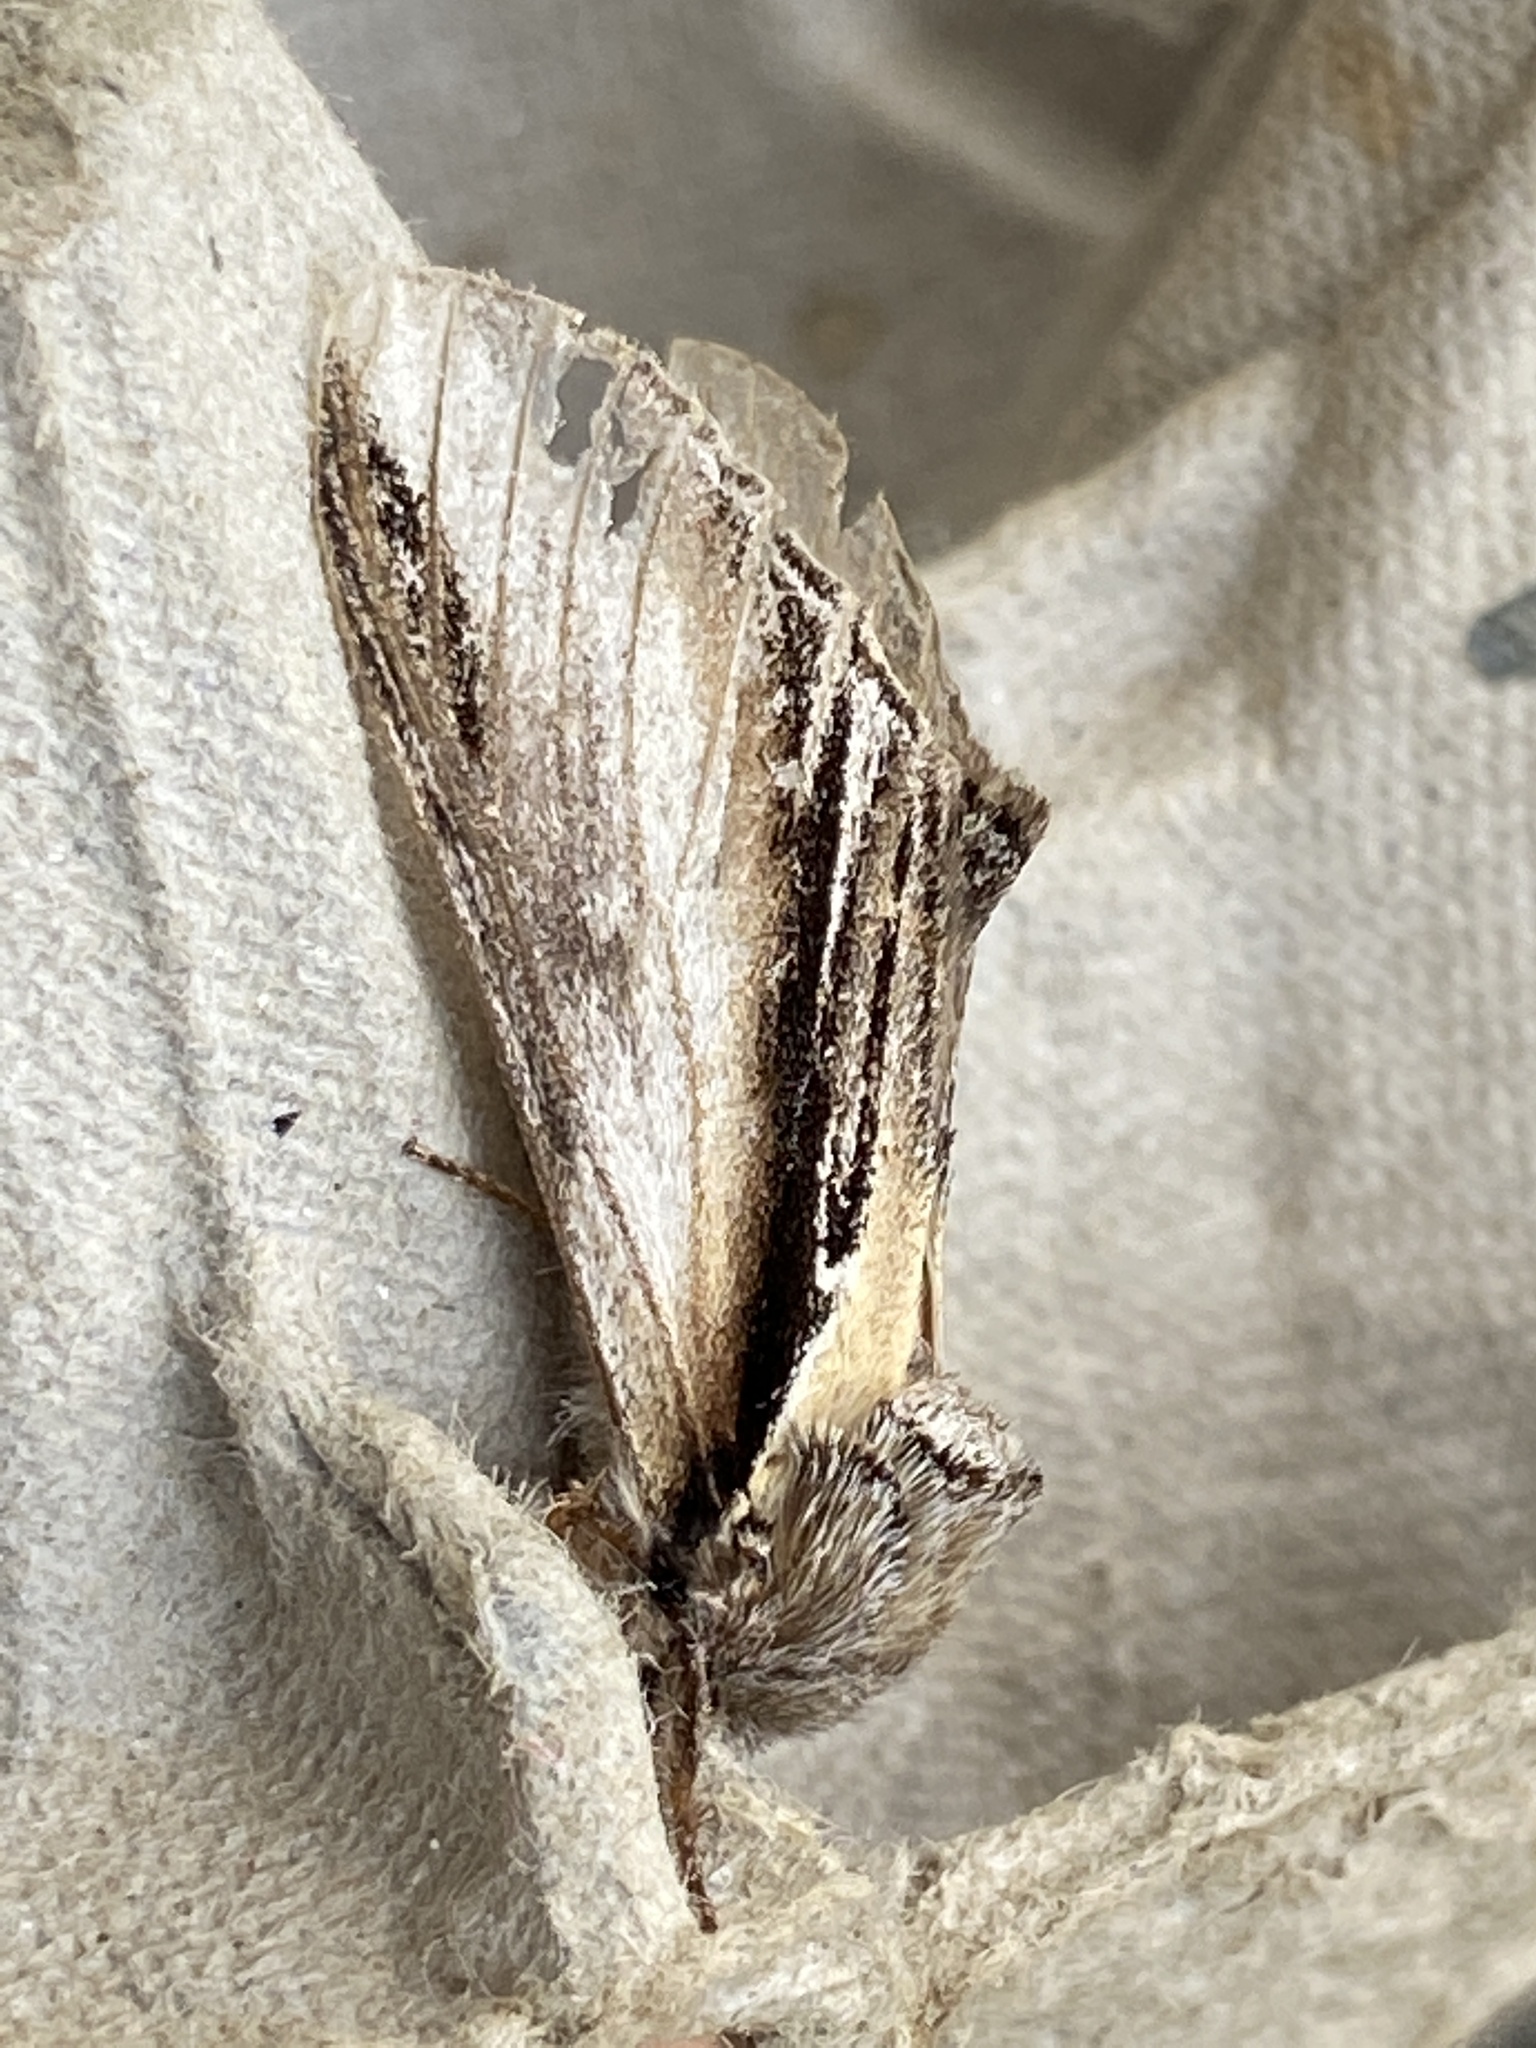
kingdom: Animalia
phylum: Arthropoda
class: Insecta
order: Lepidoptera
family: Notodontidae
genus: Pheosia
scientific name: Pheosia tremula
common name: Swallow prominent
